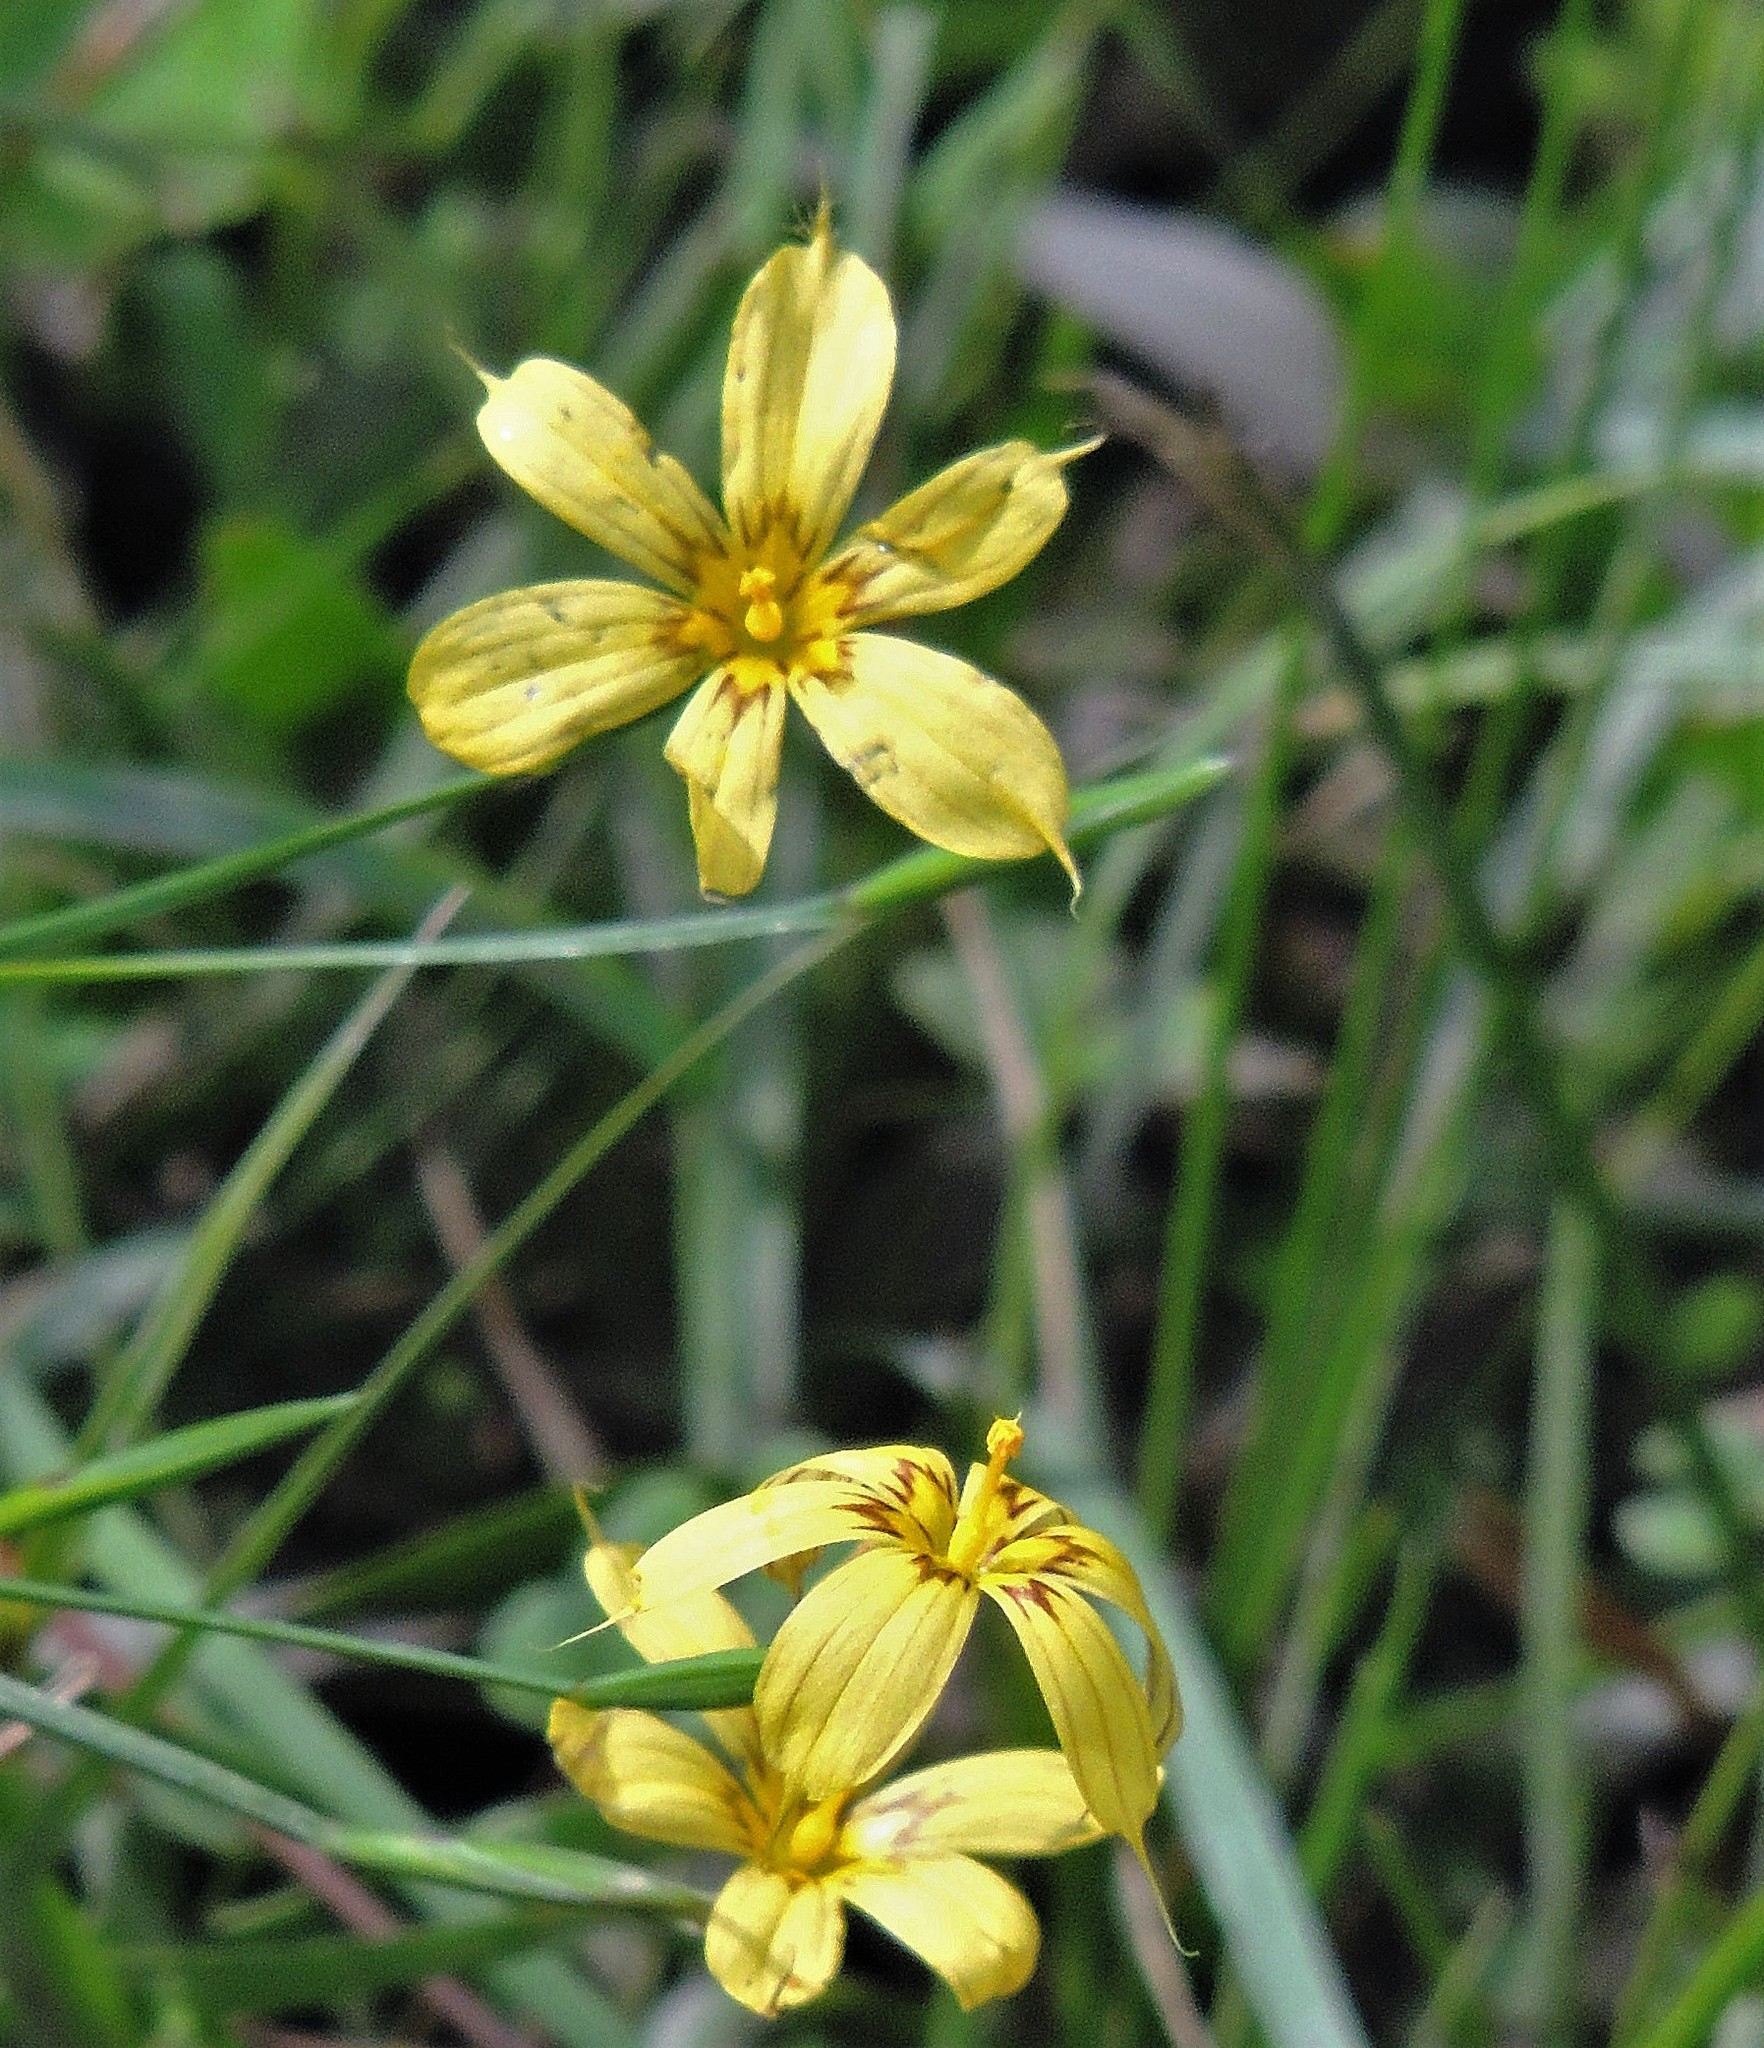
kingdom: Plantae
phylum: Tracheophyta
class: Liliopsida
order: Asparagales
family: Iridaceae
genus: Sisyrinchium
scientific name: Sisyrinchium pachyrhizum
